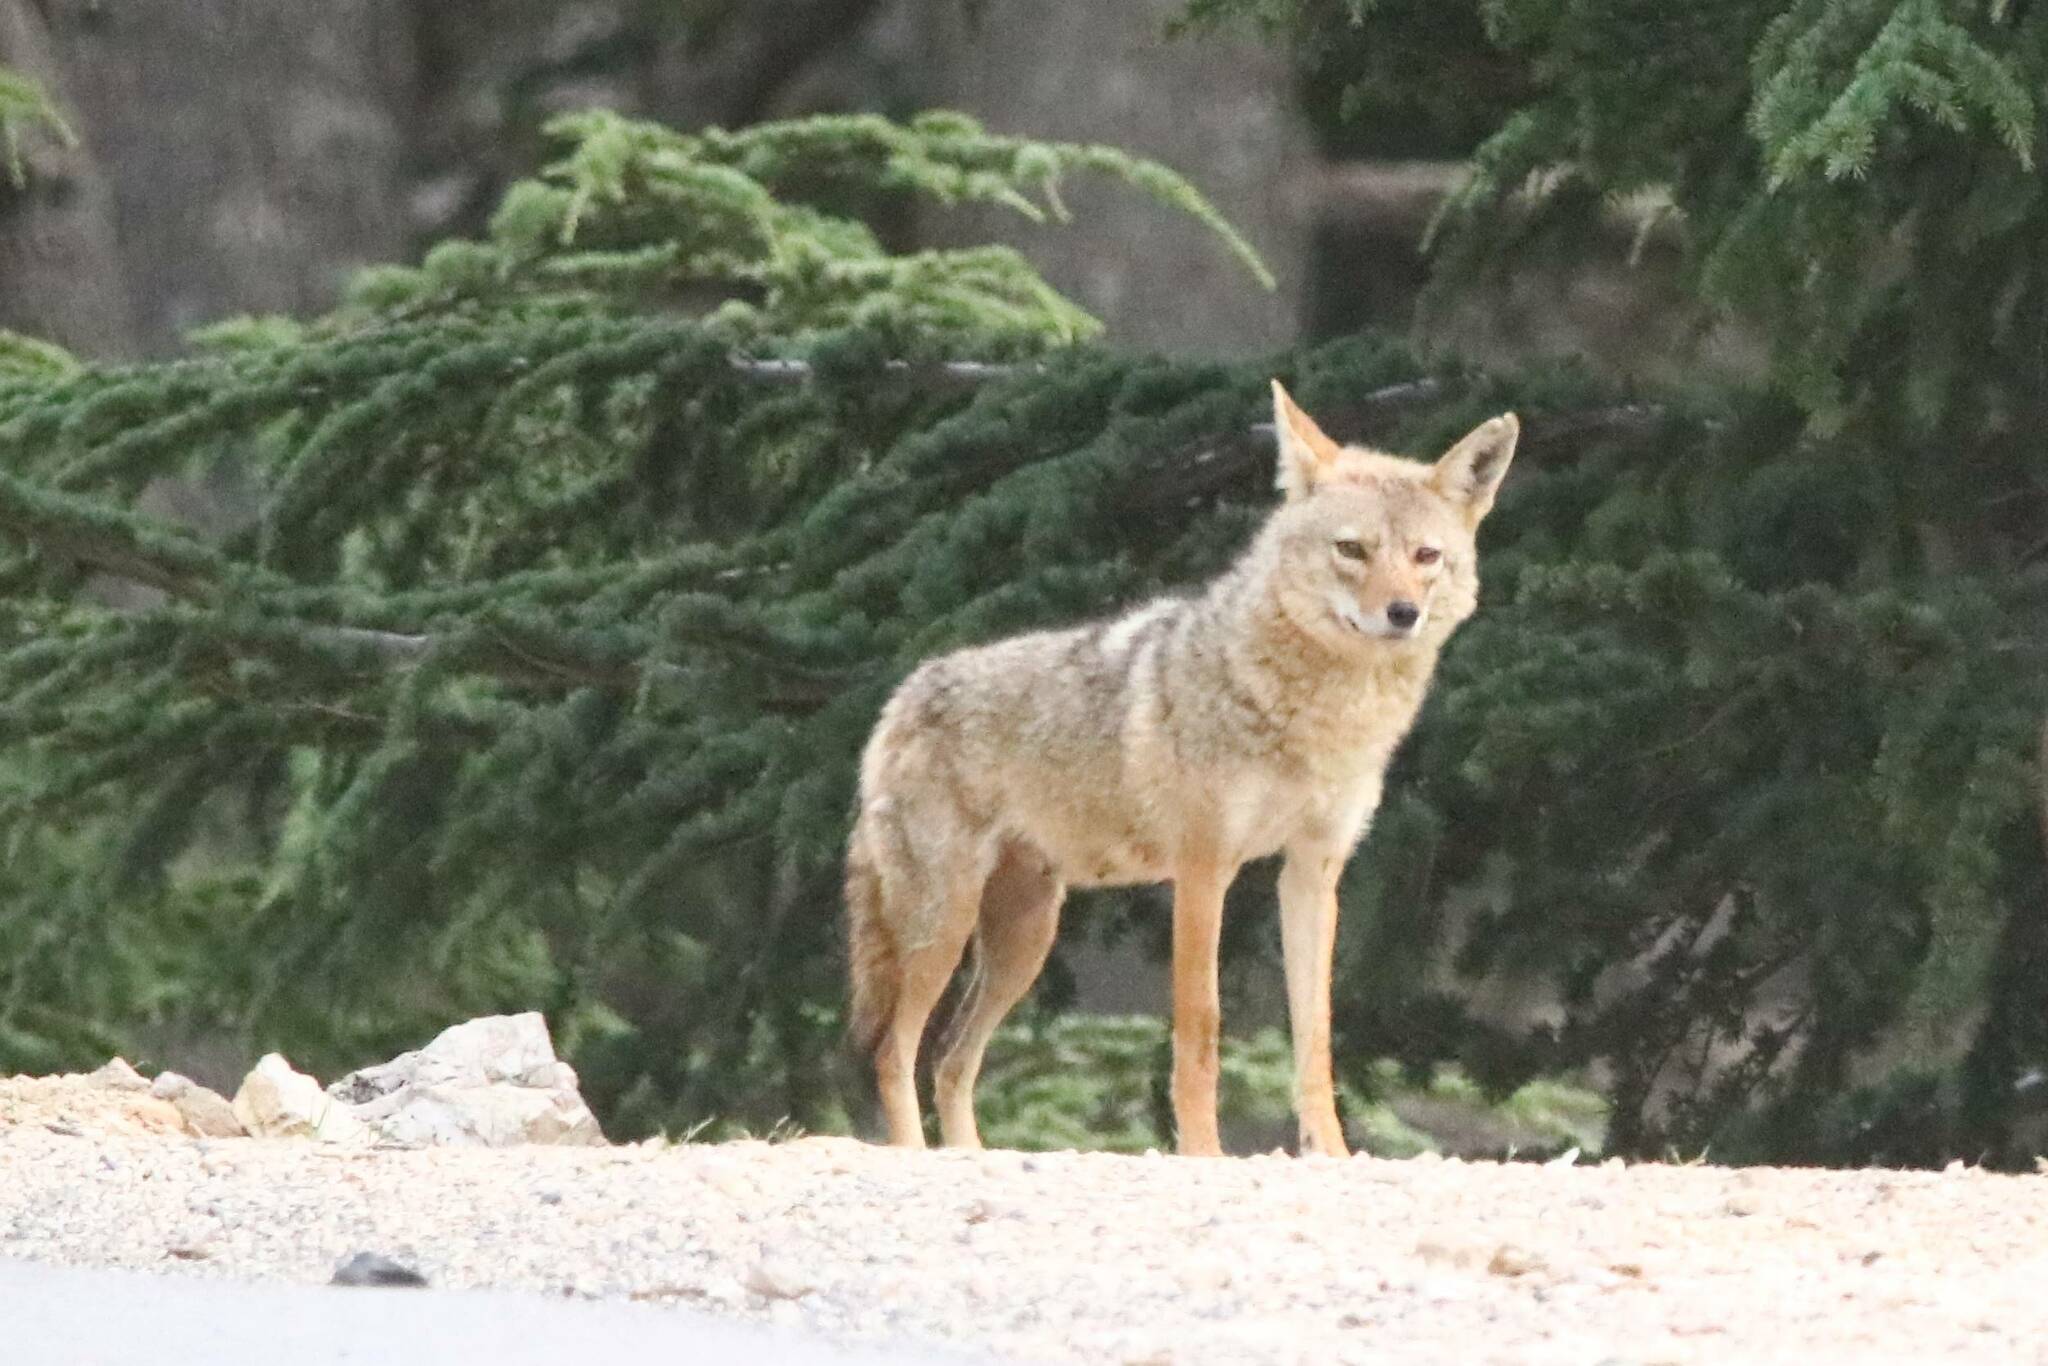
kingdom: Animalia
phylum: Chordata
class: Mammalia
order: Carnivora
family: Canidae
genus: Canis
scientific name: Canis lupaster
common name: African golden wolf
